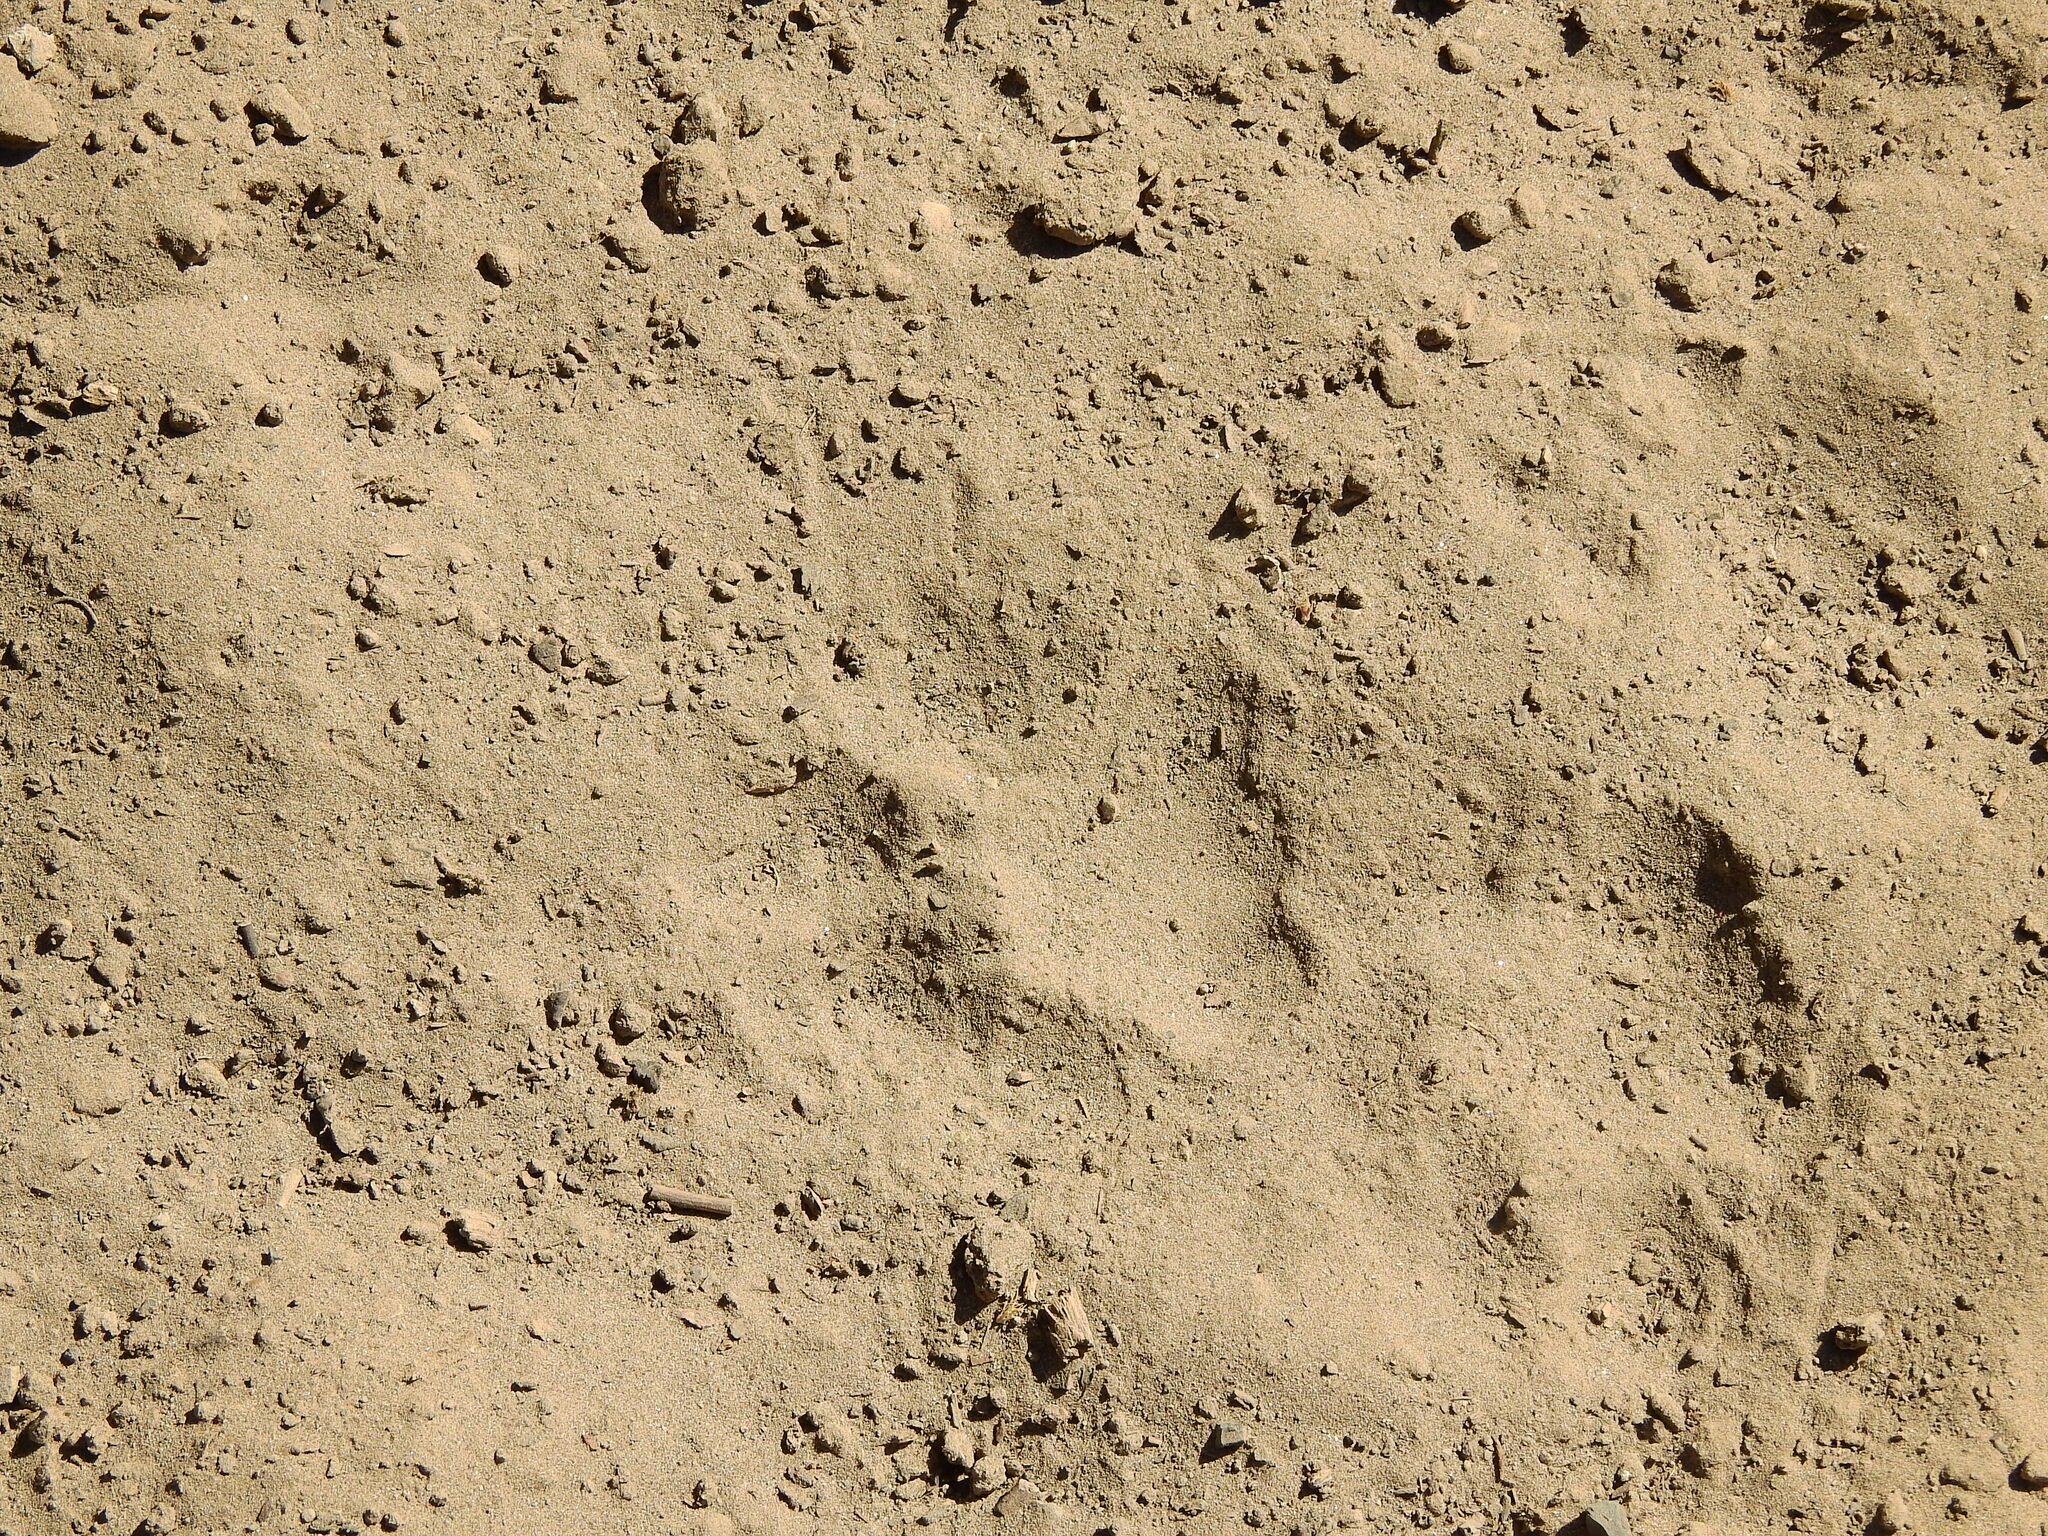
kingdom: Animalia
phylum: Chordata
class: Mammalia
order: Carnivora
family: Felidae
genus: Puma
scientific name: Puma concolor
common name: Puma
